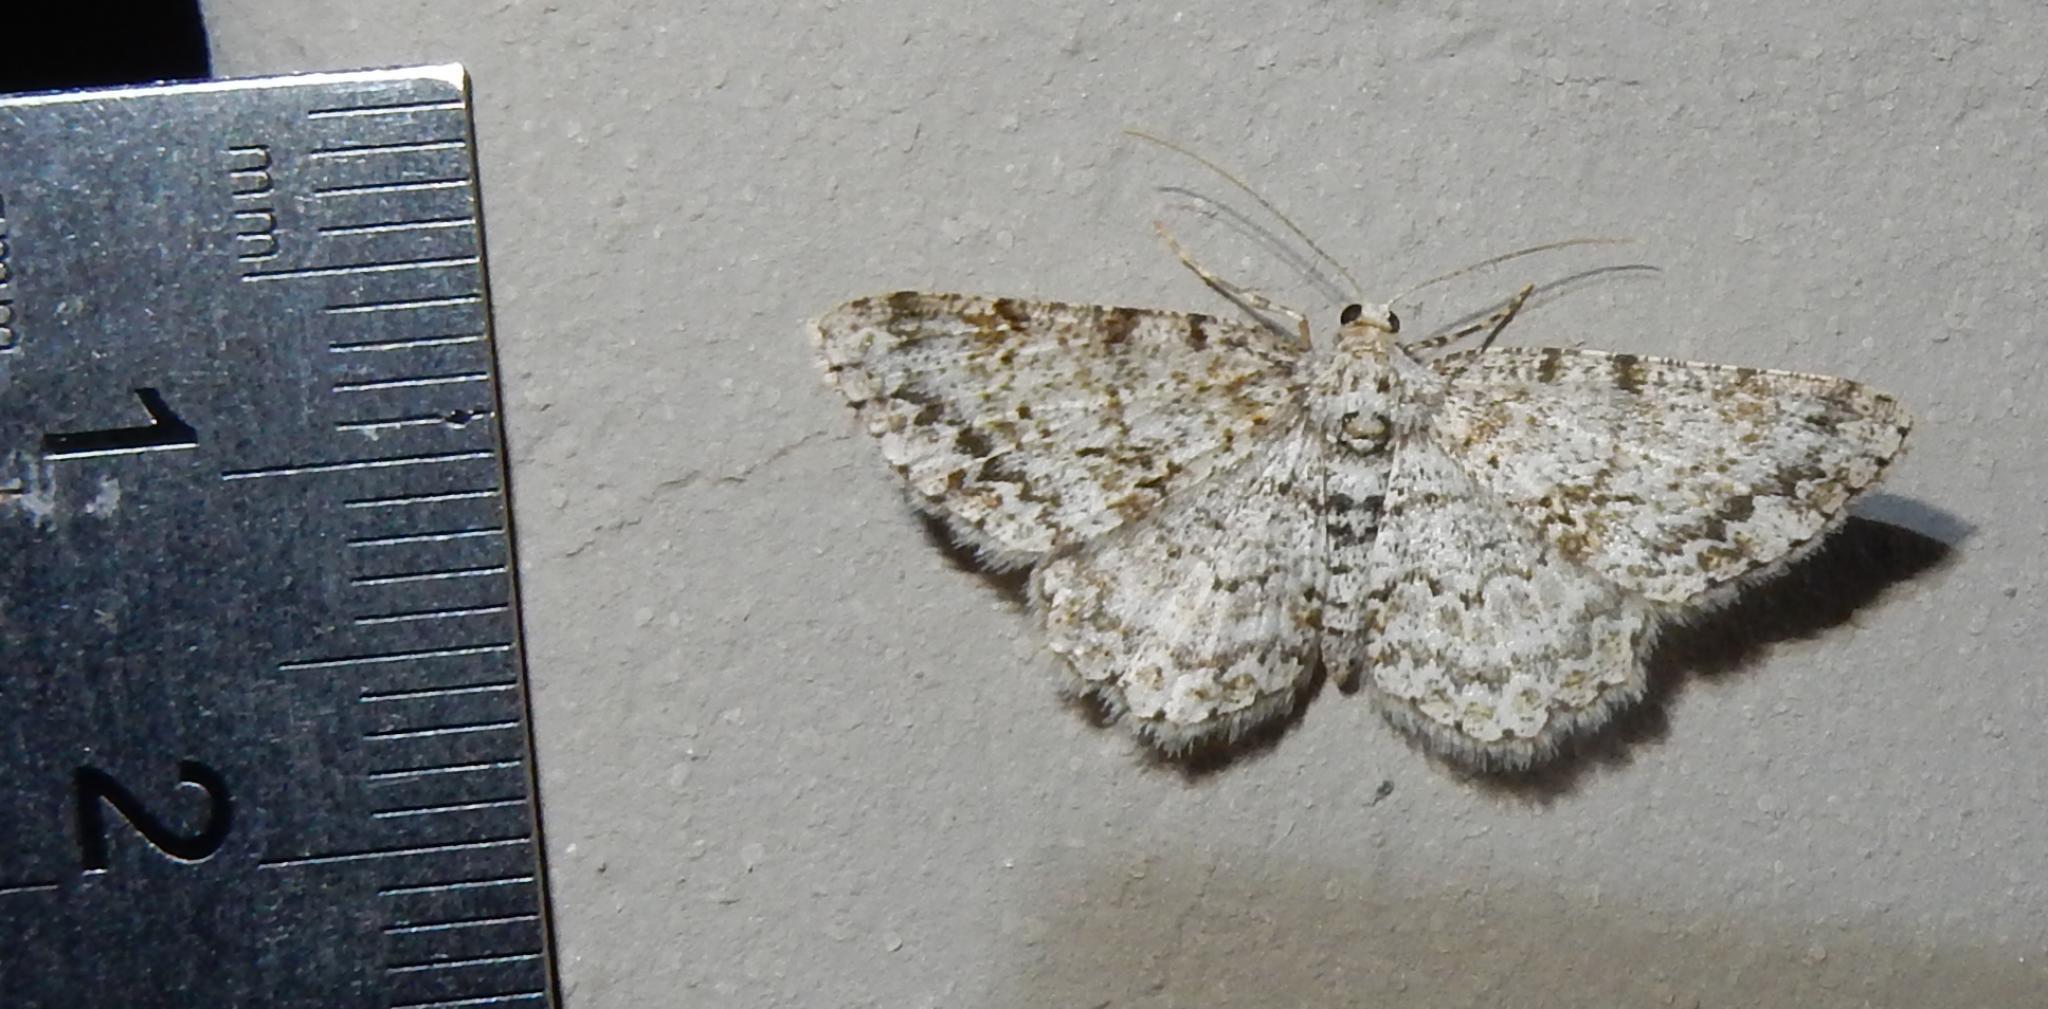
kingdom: Animalia
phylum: Arthropoda
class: Insecta
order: Lepidoptera
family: Geometridae
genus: Ectropis
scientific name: Ectropis spoliataria
